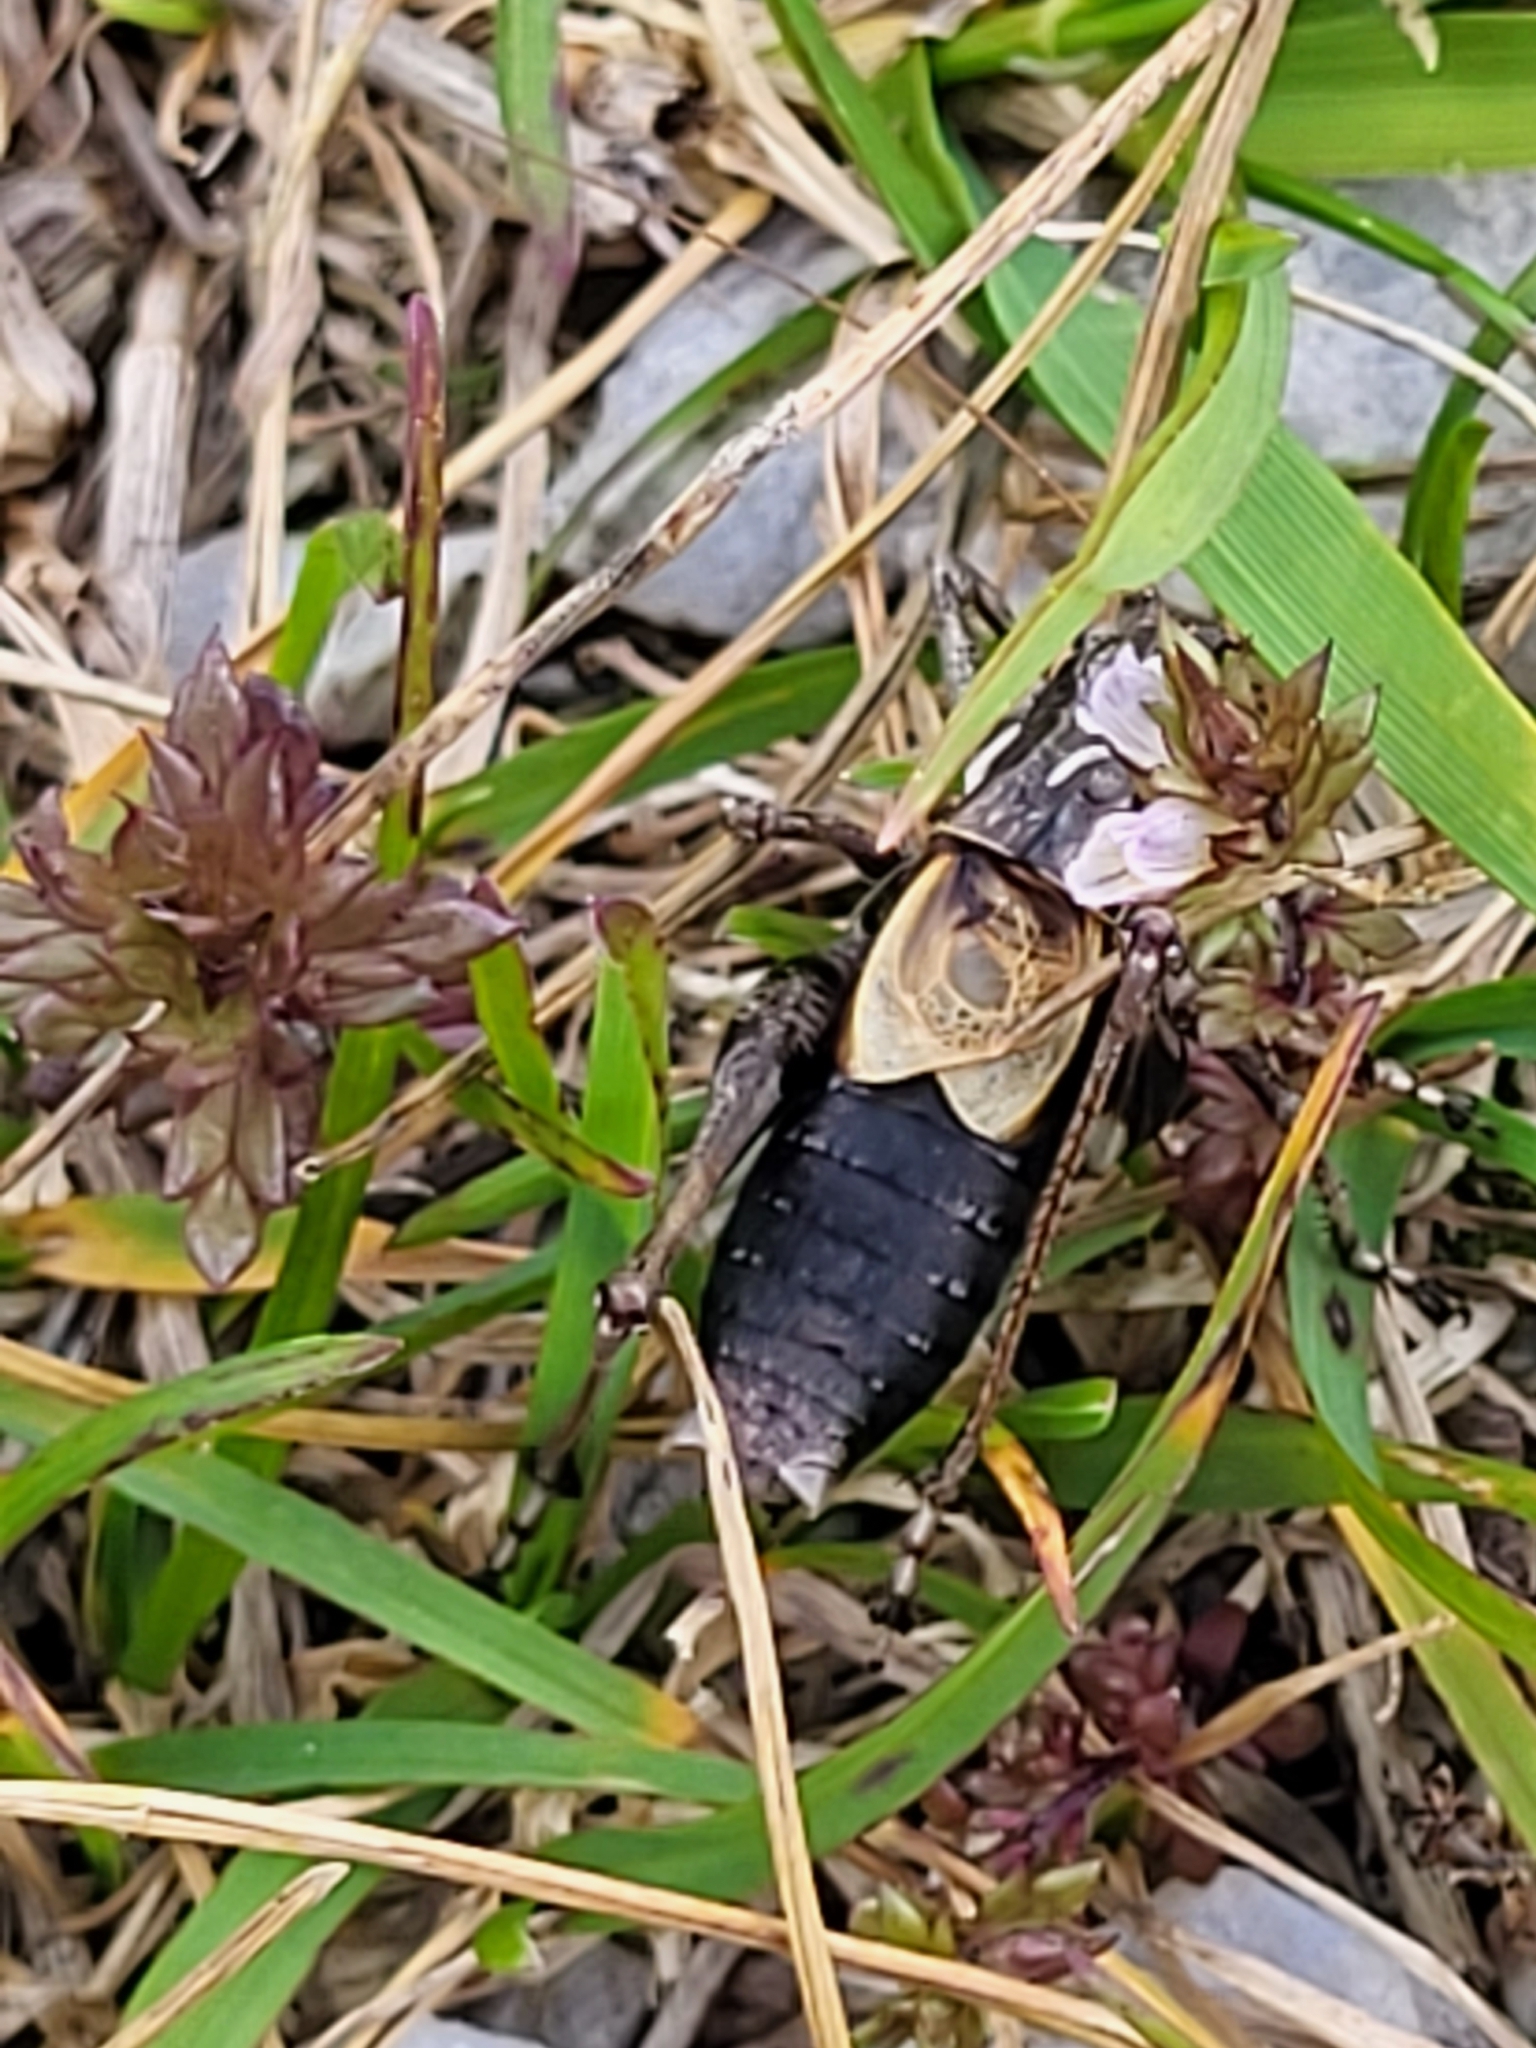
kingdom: Animalia
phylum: Arthropoda
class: Insecta
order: Orthoptera
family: Tettigoniidae
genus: Antaxius
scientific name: Antaxius difformis
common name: Eastern mountain bush-cricket
